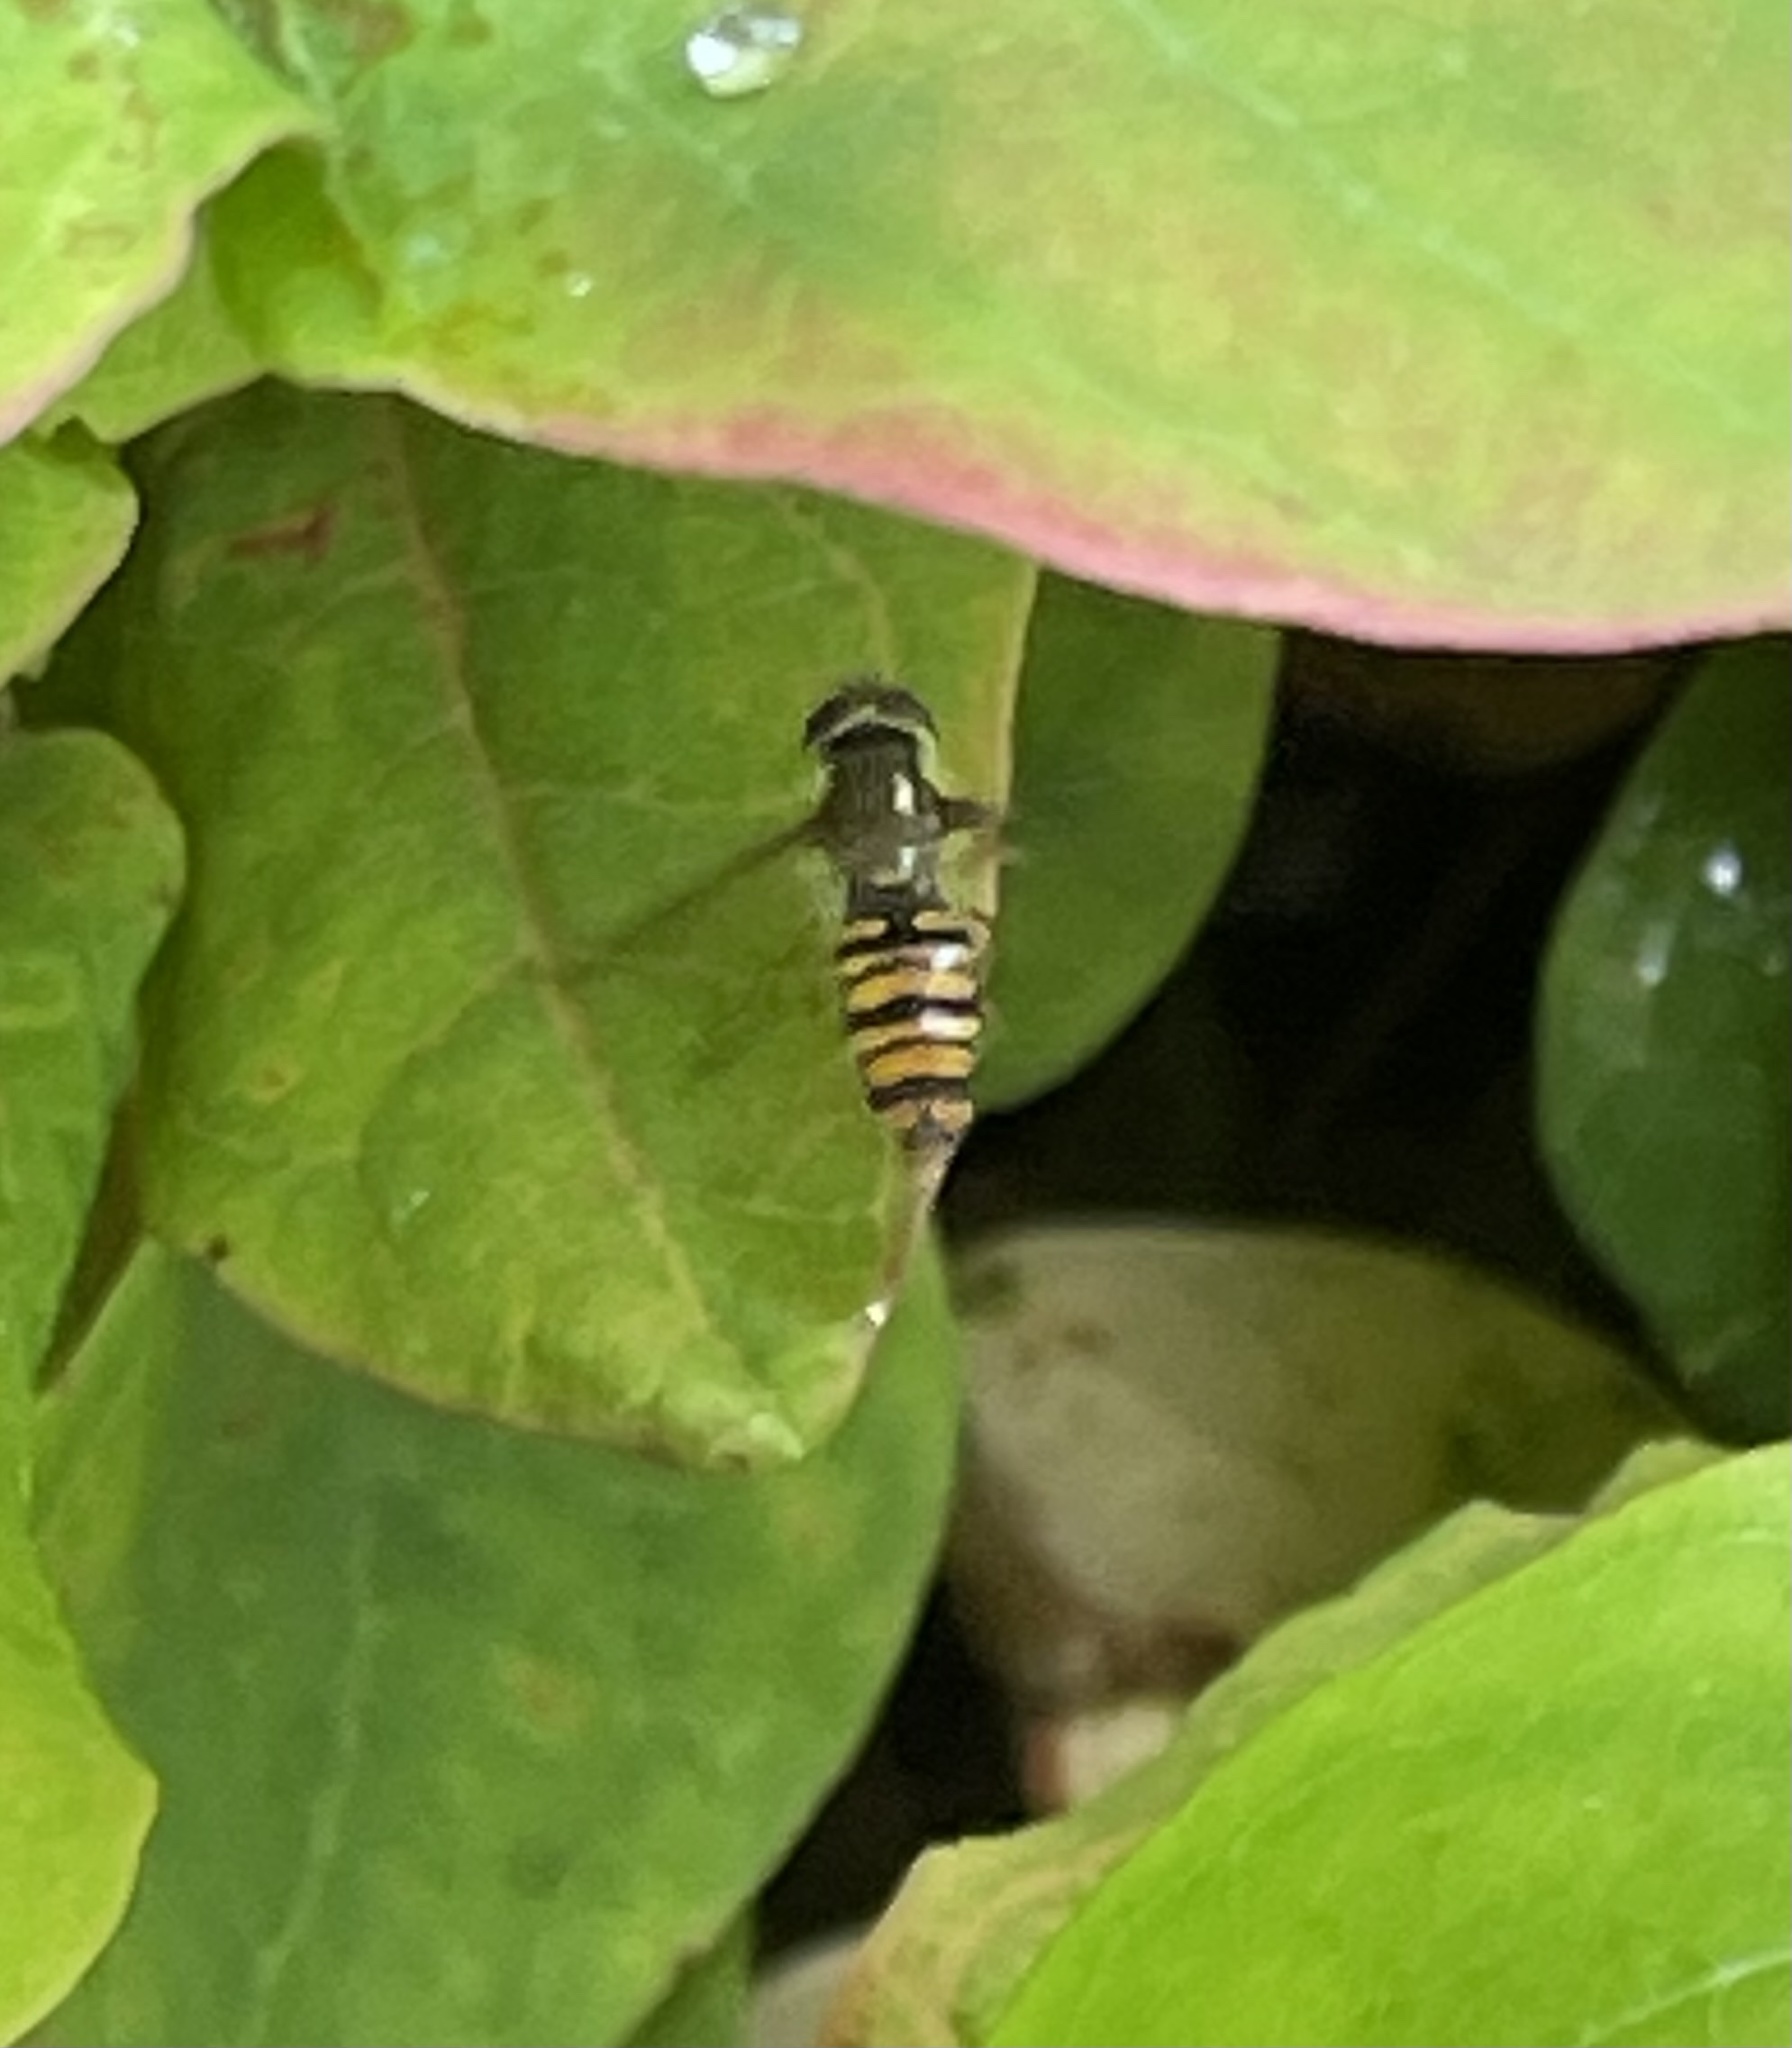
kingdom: Animalia
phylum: Arthropoda
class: Insecta
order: Diptera
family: Syrphidae
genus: Episyrphus
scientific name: Episyrphus balteatus
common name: Marmalade hoverfly
